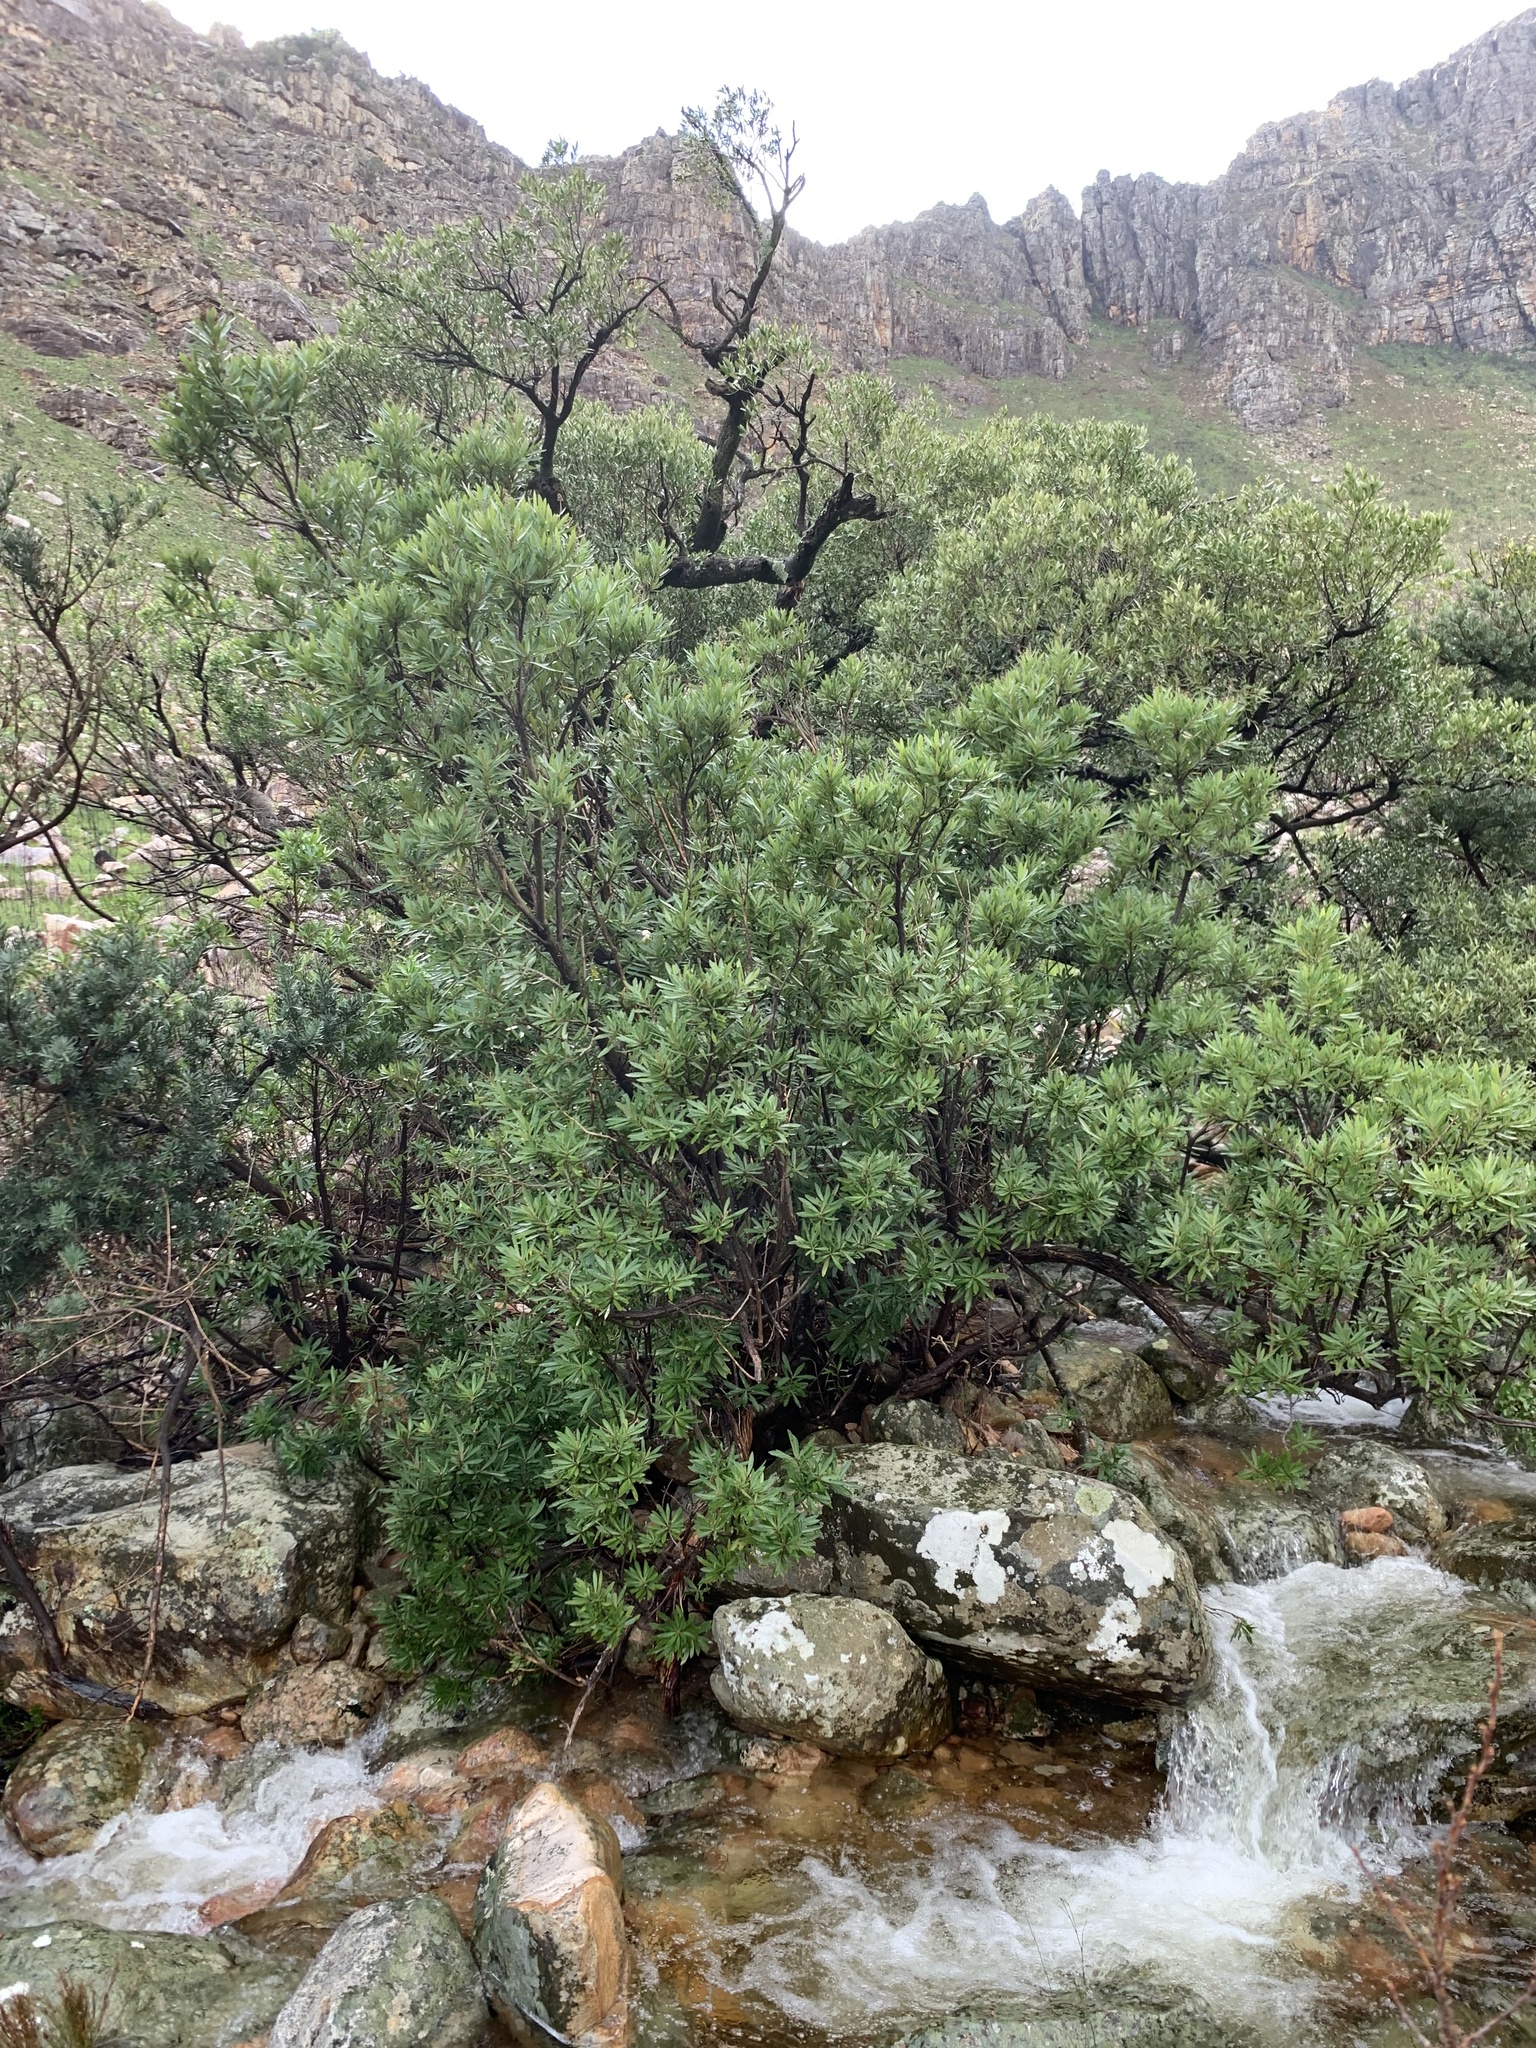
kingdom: Plantae
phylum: Tracheophyta
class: Magnoliopsida
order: Proteales
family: Proteaceae
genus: Brabejum
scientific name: Brabejum stellatifolium
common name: Wild almond
